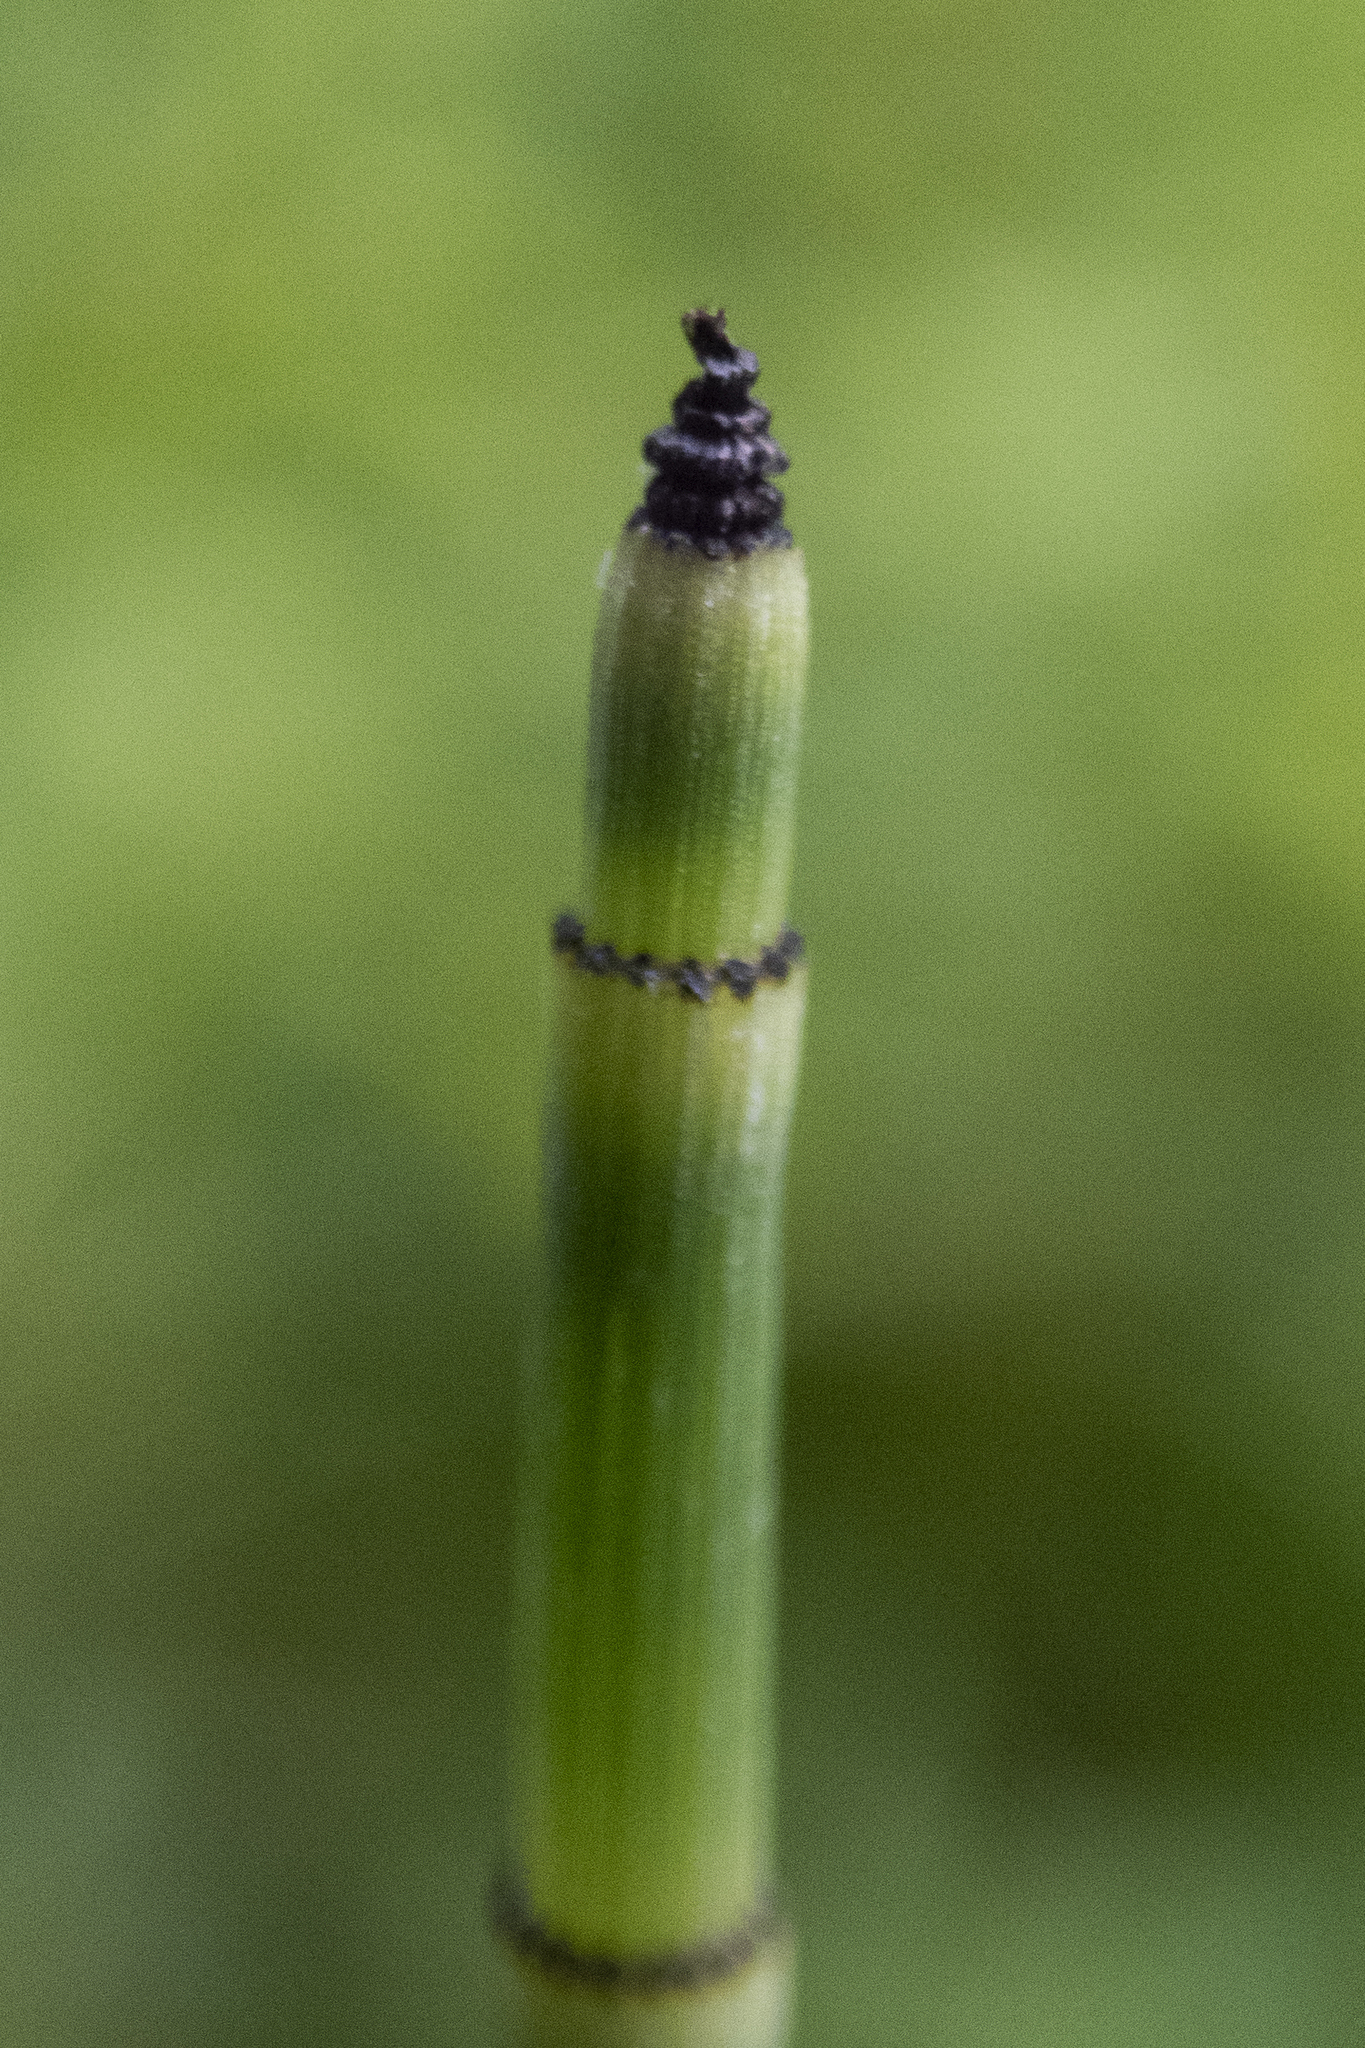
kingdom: Plantae
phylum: Tracheophyta
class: Polypodiopsida
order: Equisetales
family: Equisetaceae
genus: Equisetum
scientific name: Equisetum hyemale
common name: Rough horsetail
